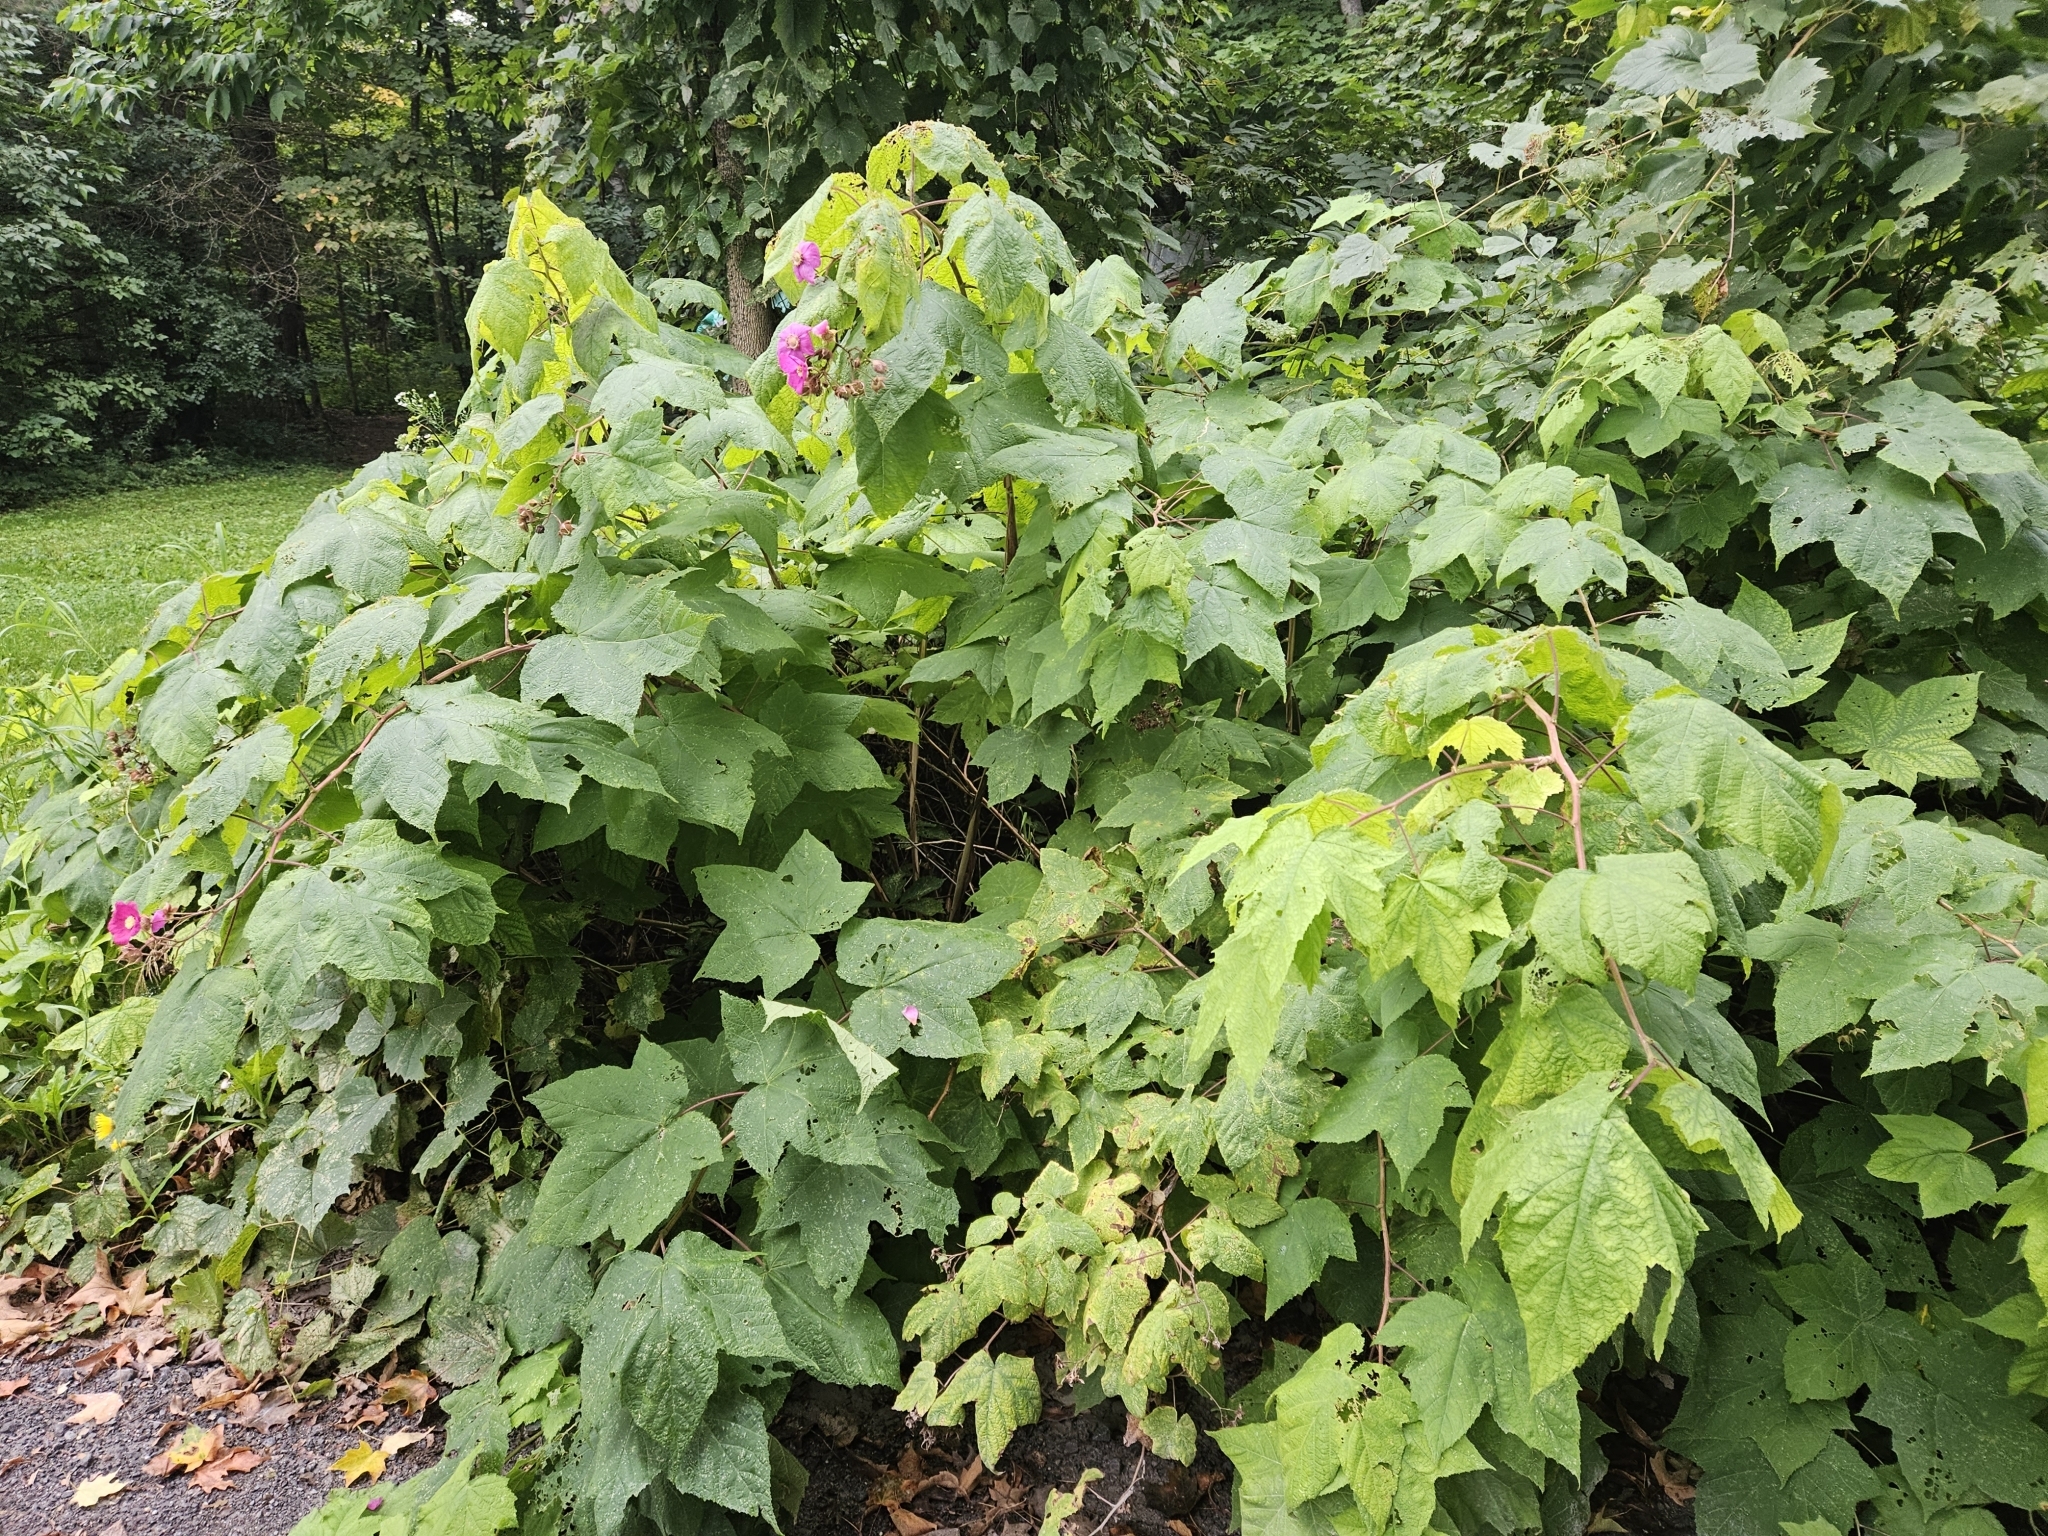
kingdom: Plantae
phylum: Tracheophyta
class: Magnoliopsida
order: Rosales
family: Rosaceae
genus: Rubus
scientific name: Rubus odoratus
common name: Purple-flowered raspberry
